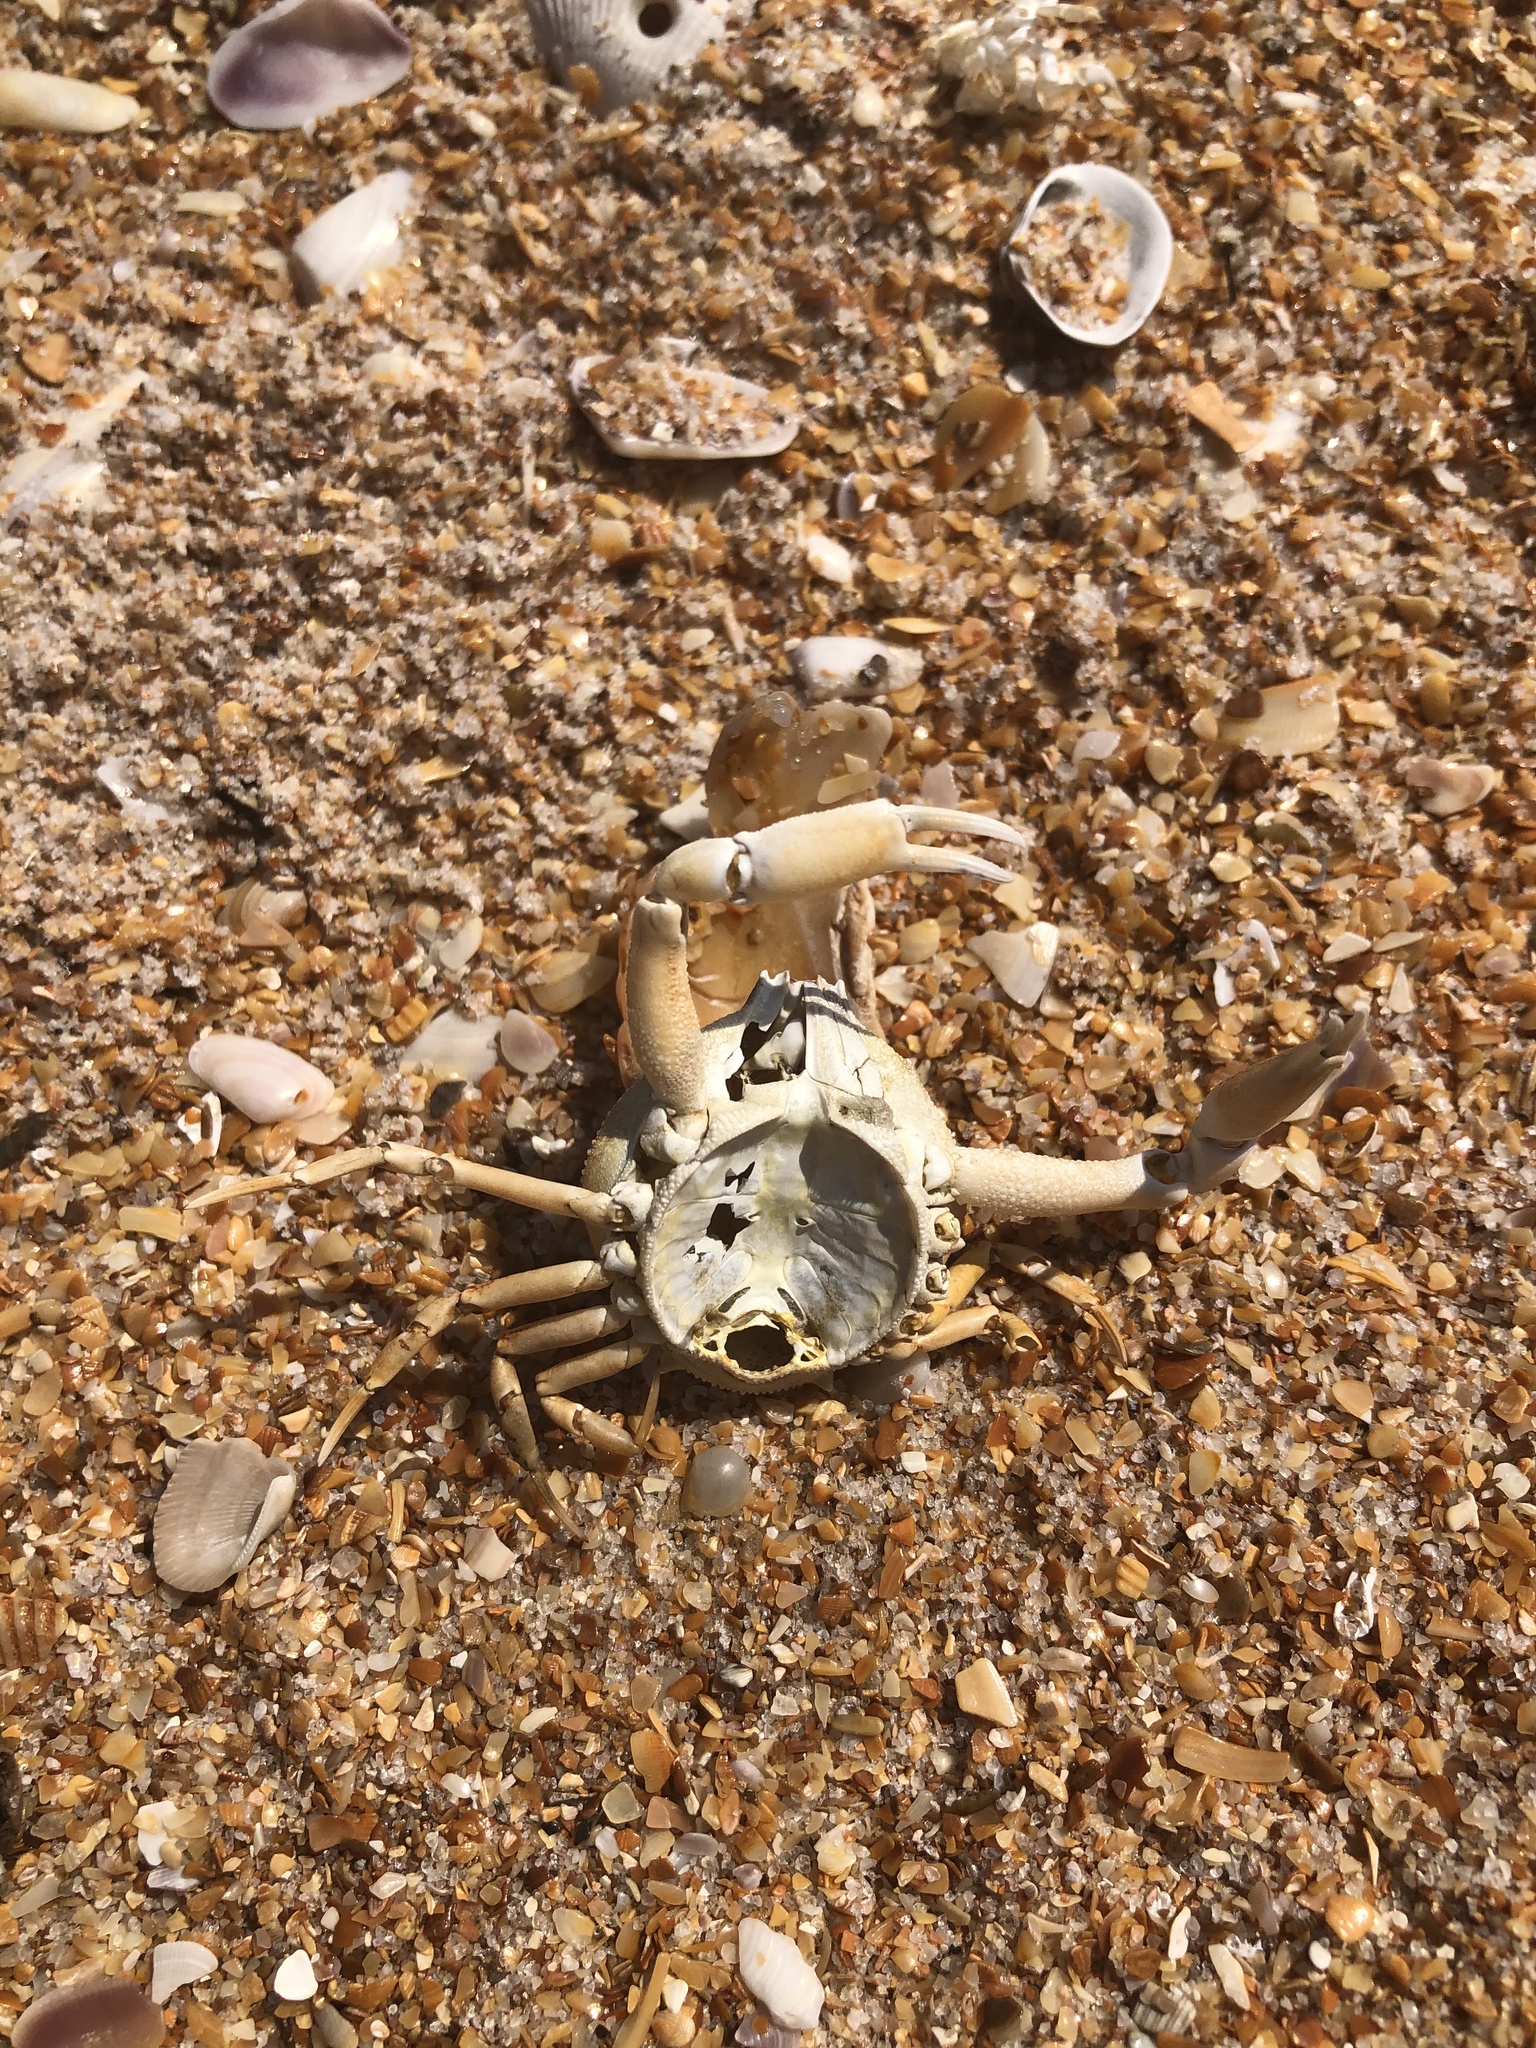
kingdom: Animalia
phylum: Arthropoda
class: Malacostraca
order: Decapoda
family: Leucosiidae
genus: Persephona
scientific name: Persephona aquilonaris
